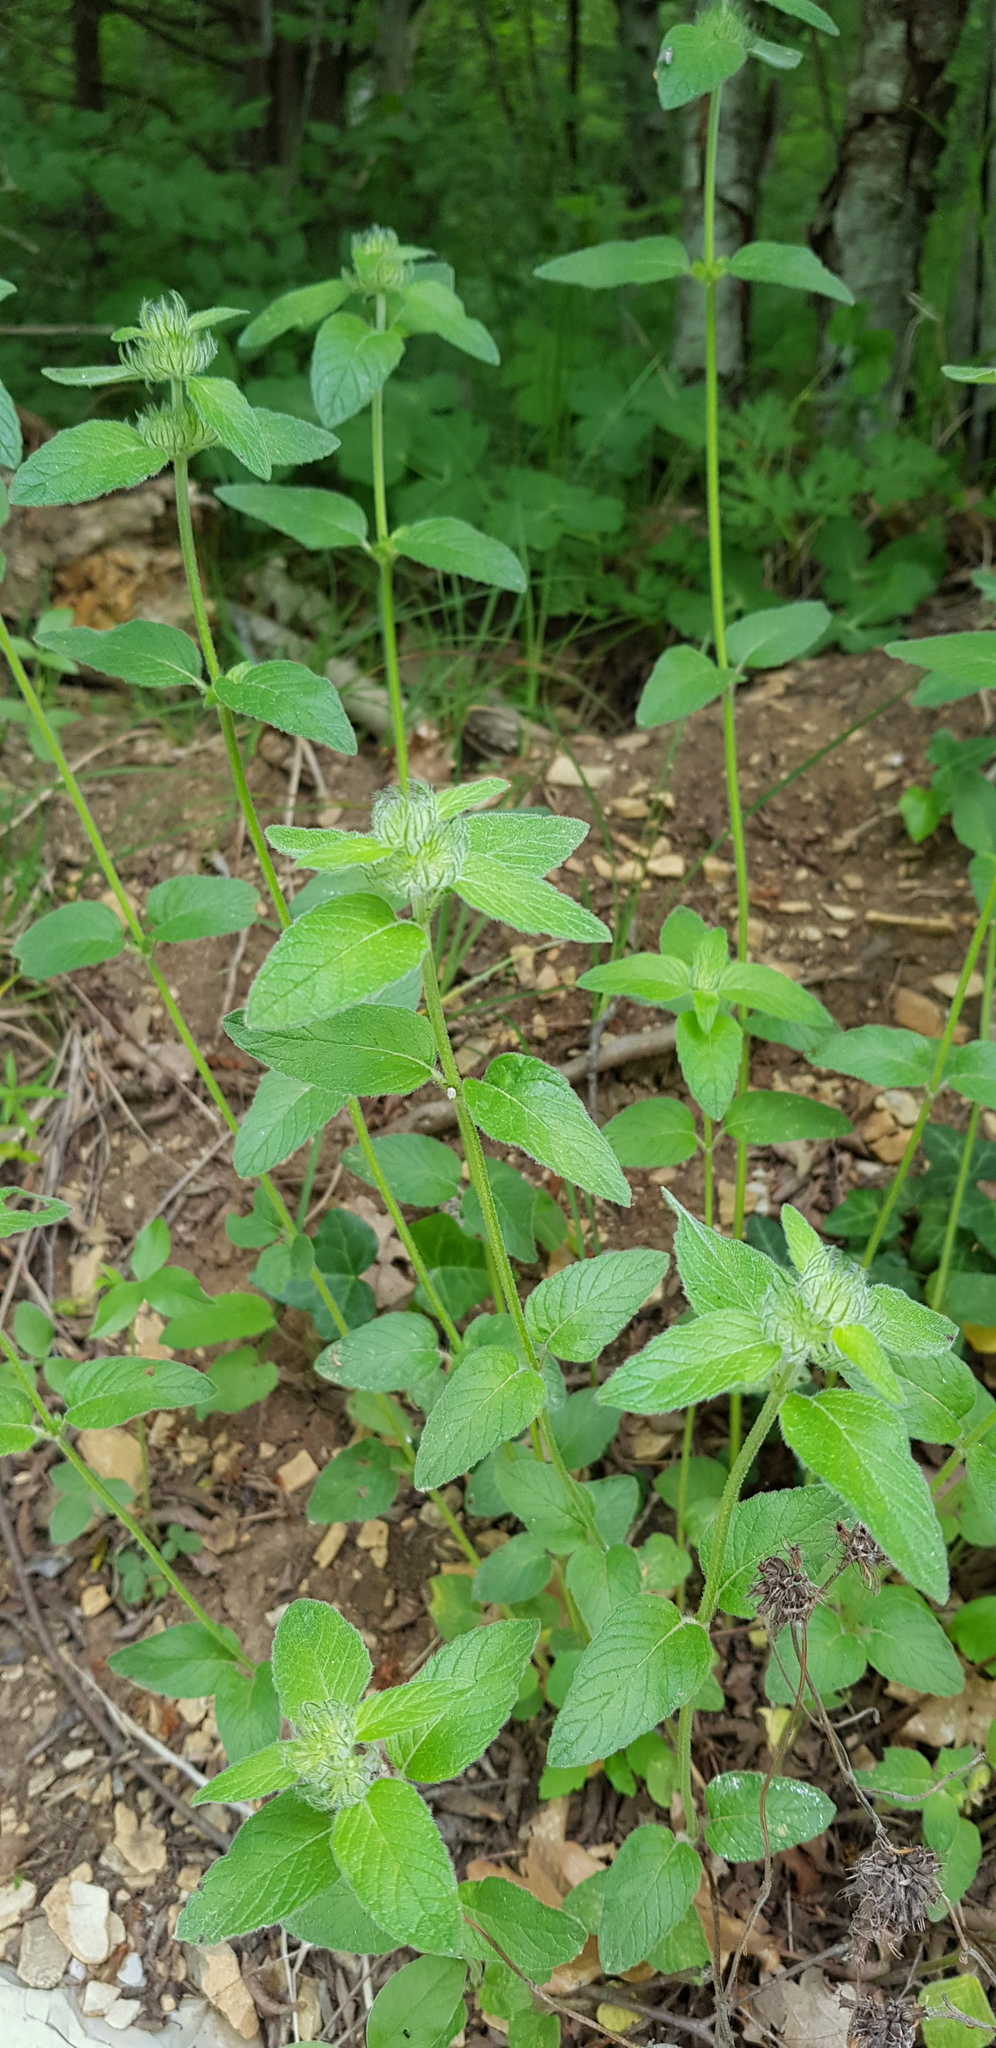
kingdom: Plantae
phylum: Tracheophyta
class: Magnoliopsida
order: Lamiales
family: Lamiaceae
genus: Clinopodium
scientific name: Clinopodium caucasicum
